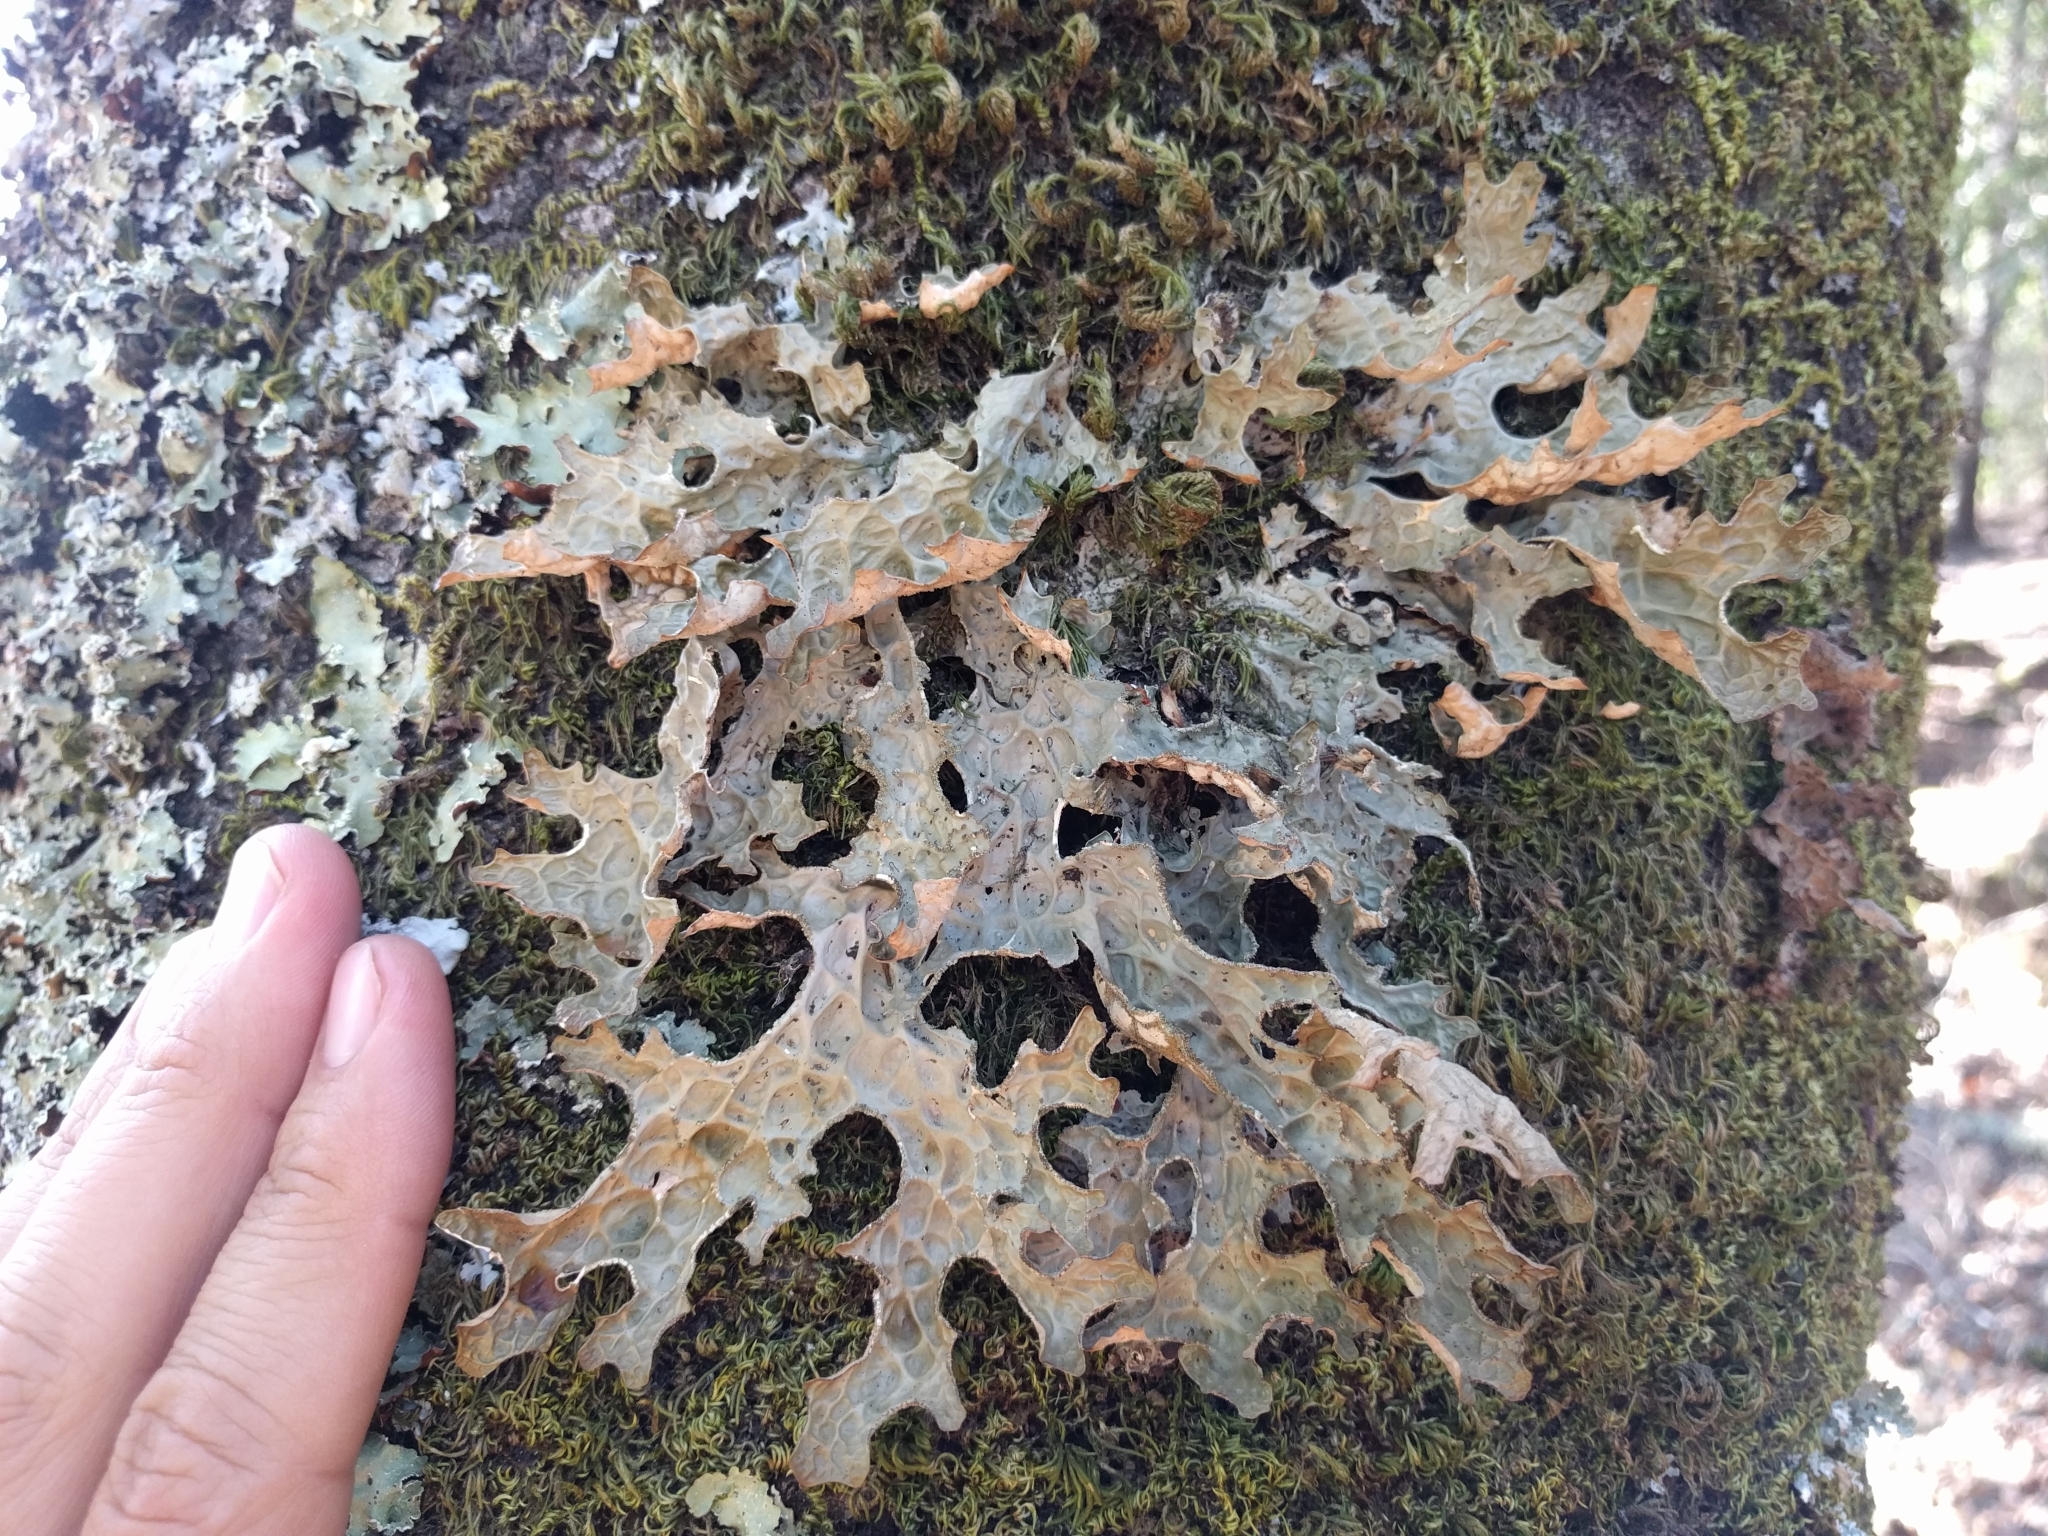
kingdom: Fungi
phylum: Ascomycota
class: Lecanoromycetes
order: Peltigerales
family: Lobariaceae
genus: Lobaria
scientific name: Lobaria pulmonaria
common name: Lungwort
